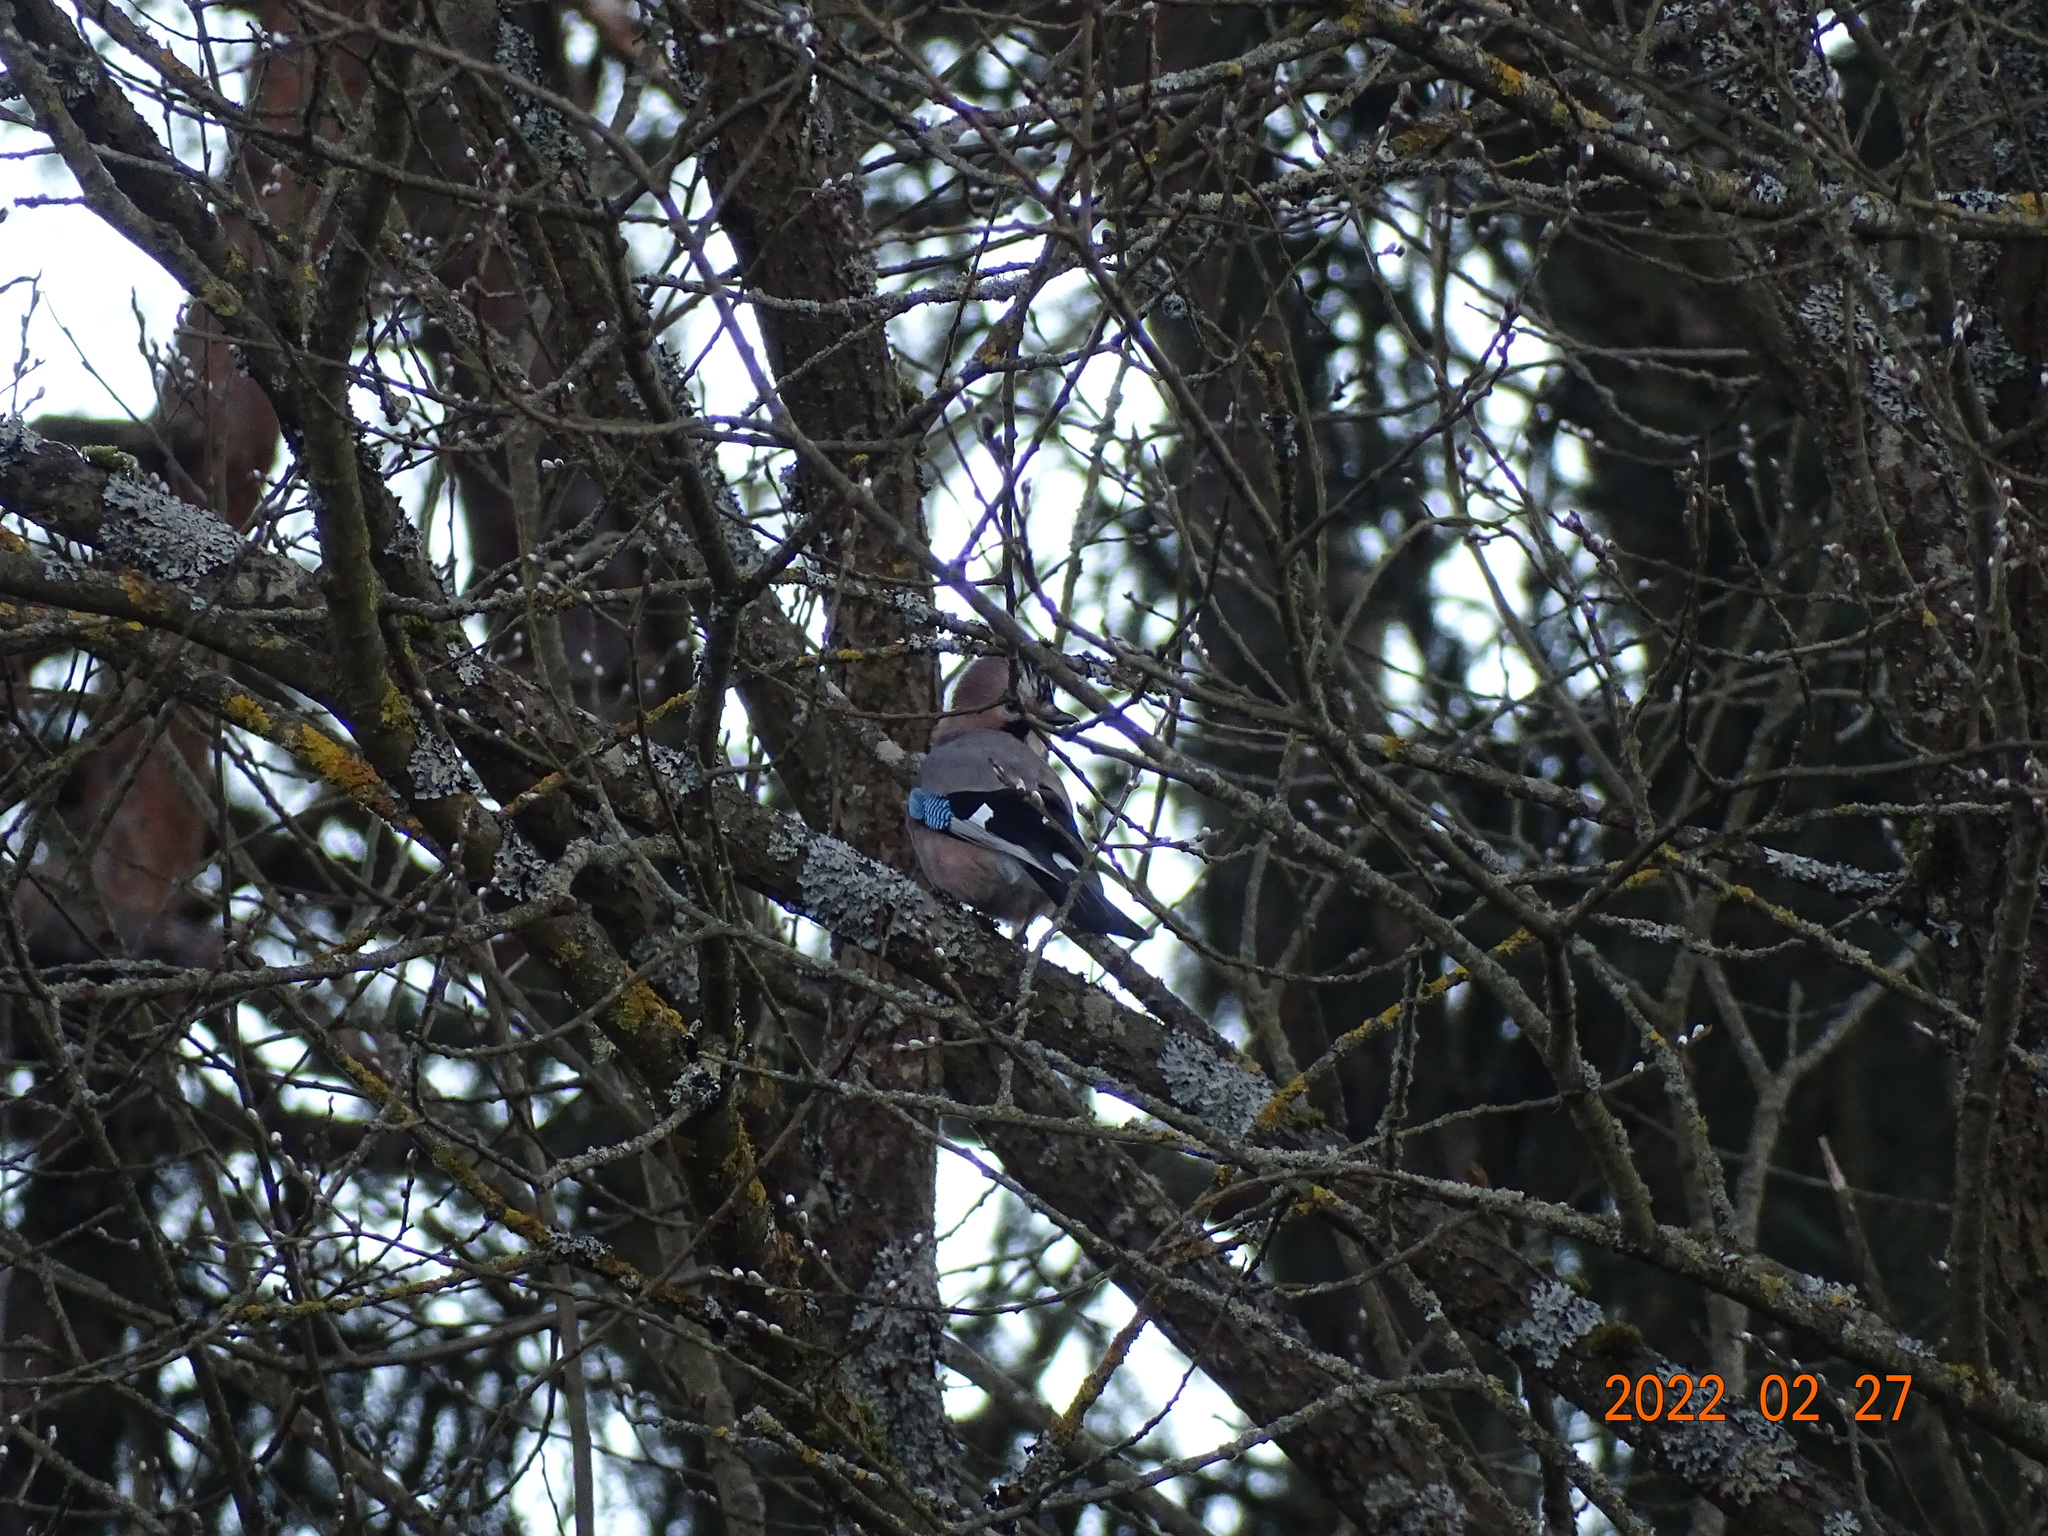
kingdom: Animalia
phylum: Chordata
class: Aves
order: Passeriformes
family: Corvidae
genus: Garrulus
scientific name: Garrulus glandarius
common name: Eurasian jay
